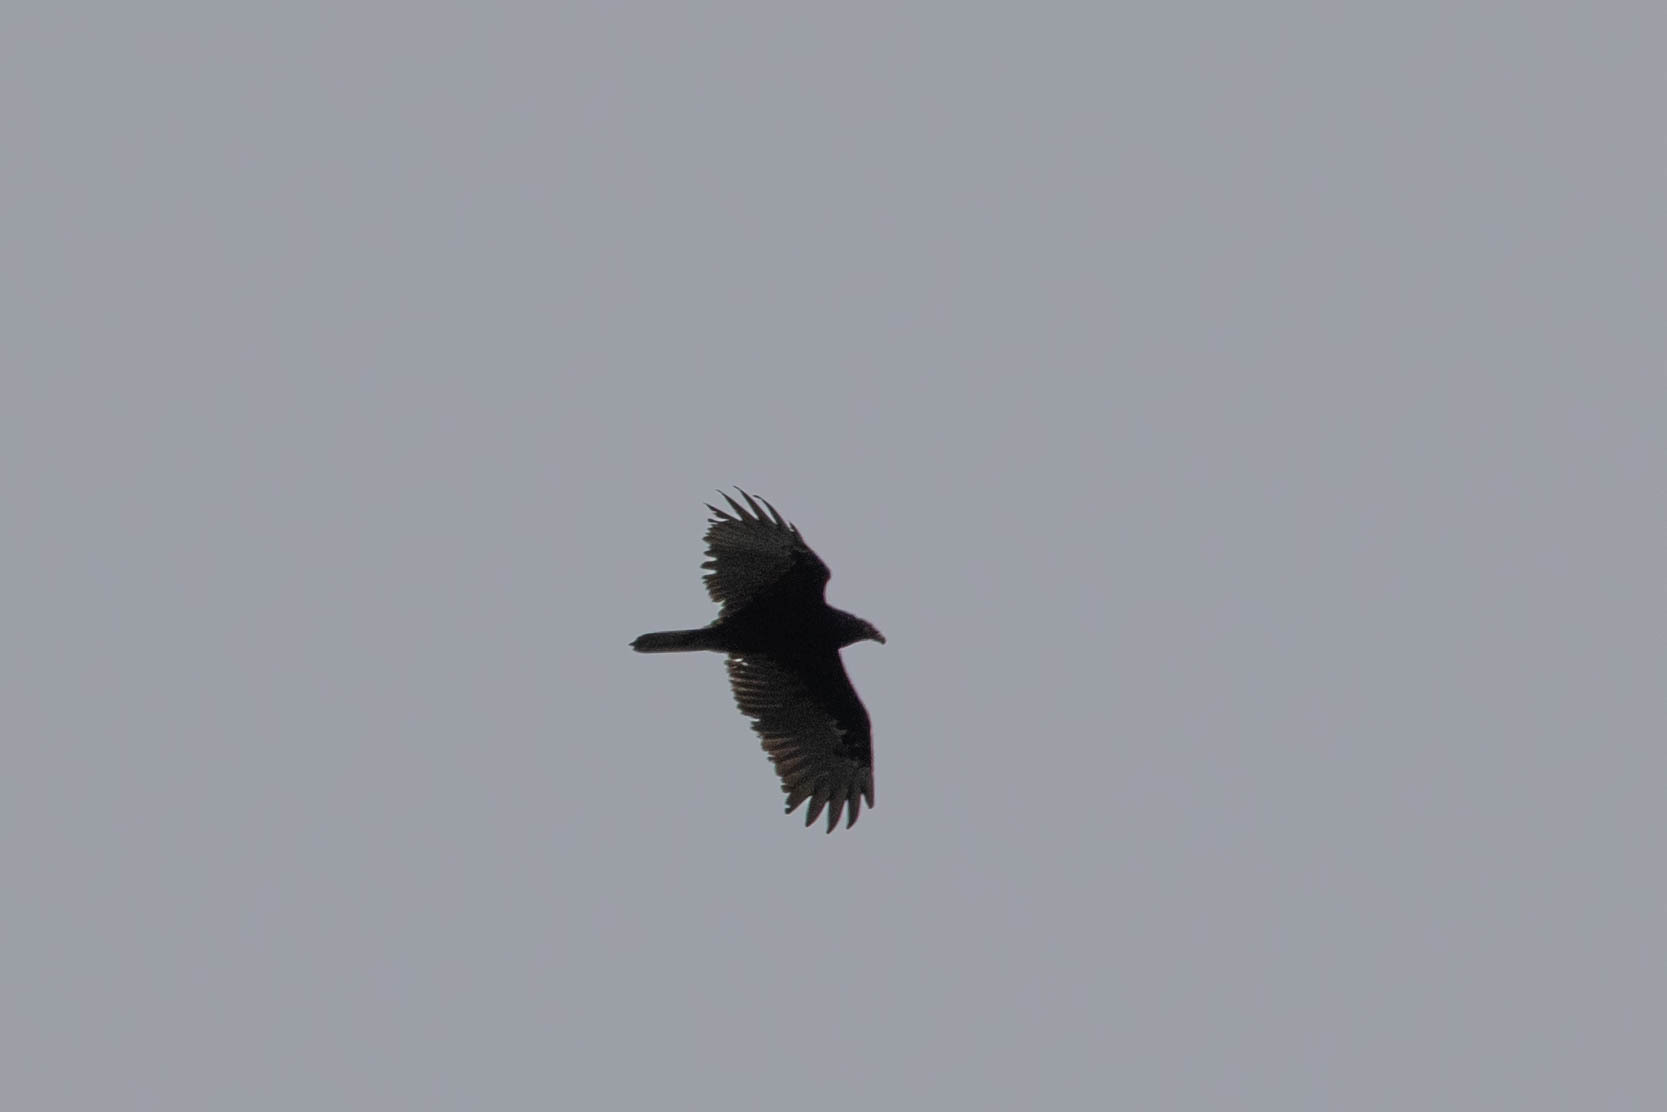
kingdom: Animalia
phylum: Chordata
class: Aves
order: Accipitriformes
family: Cathartidae
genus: Cathartes
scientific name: Cathartes aura
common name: Turkey vulture
